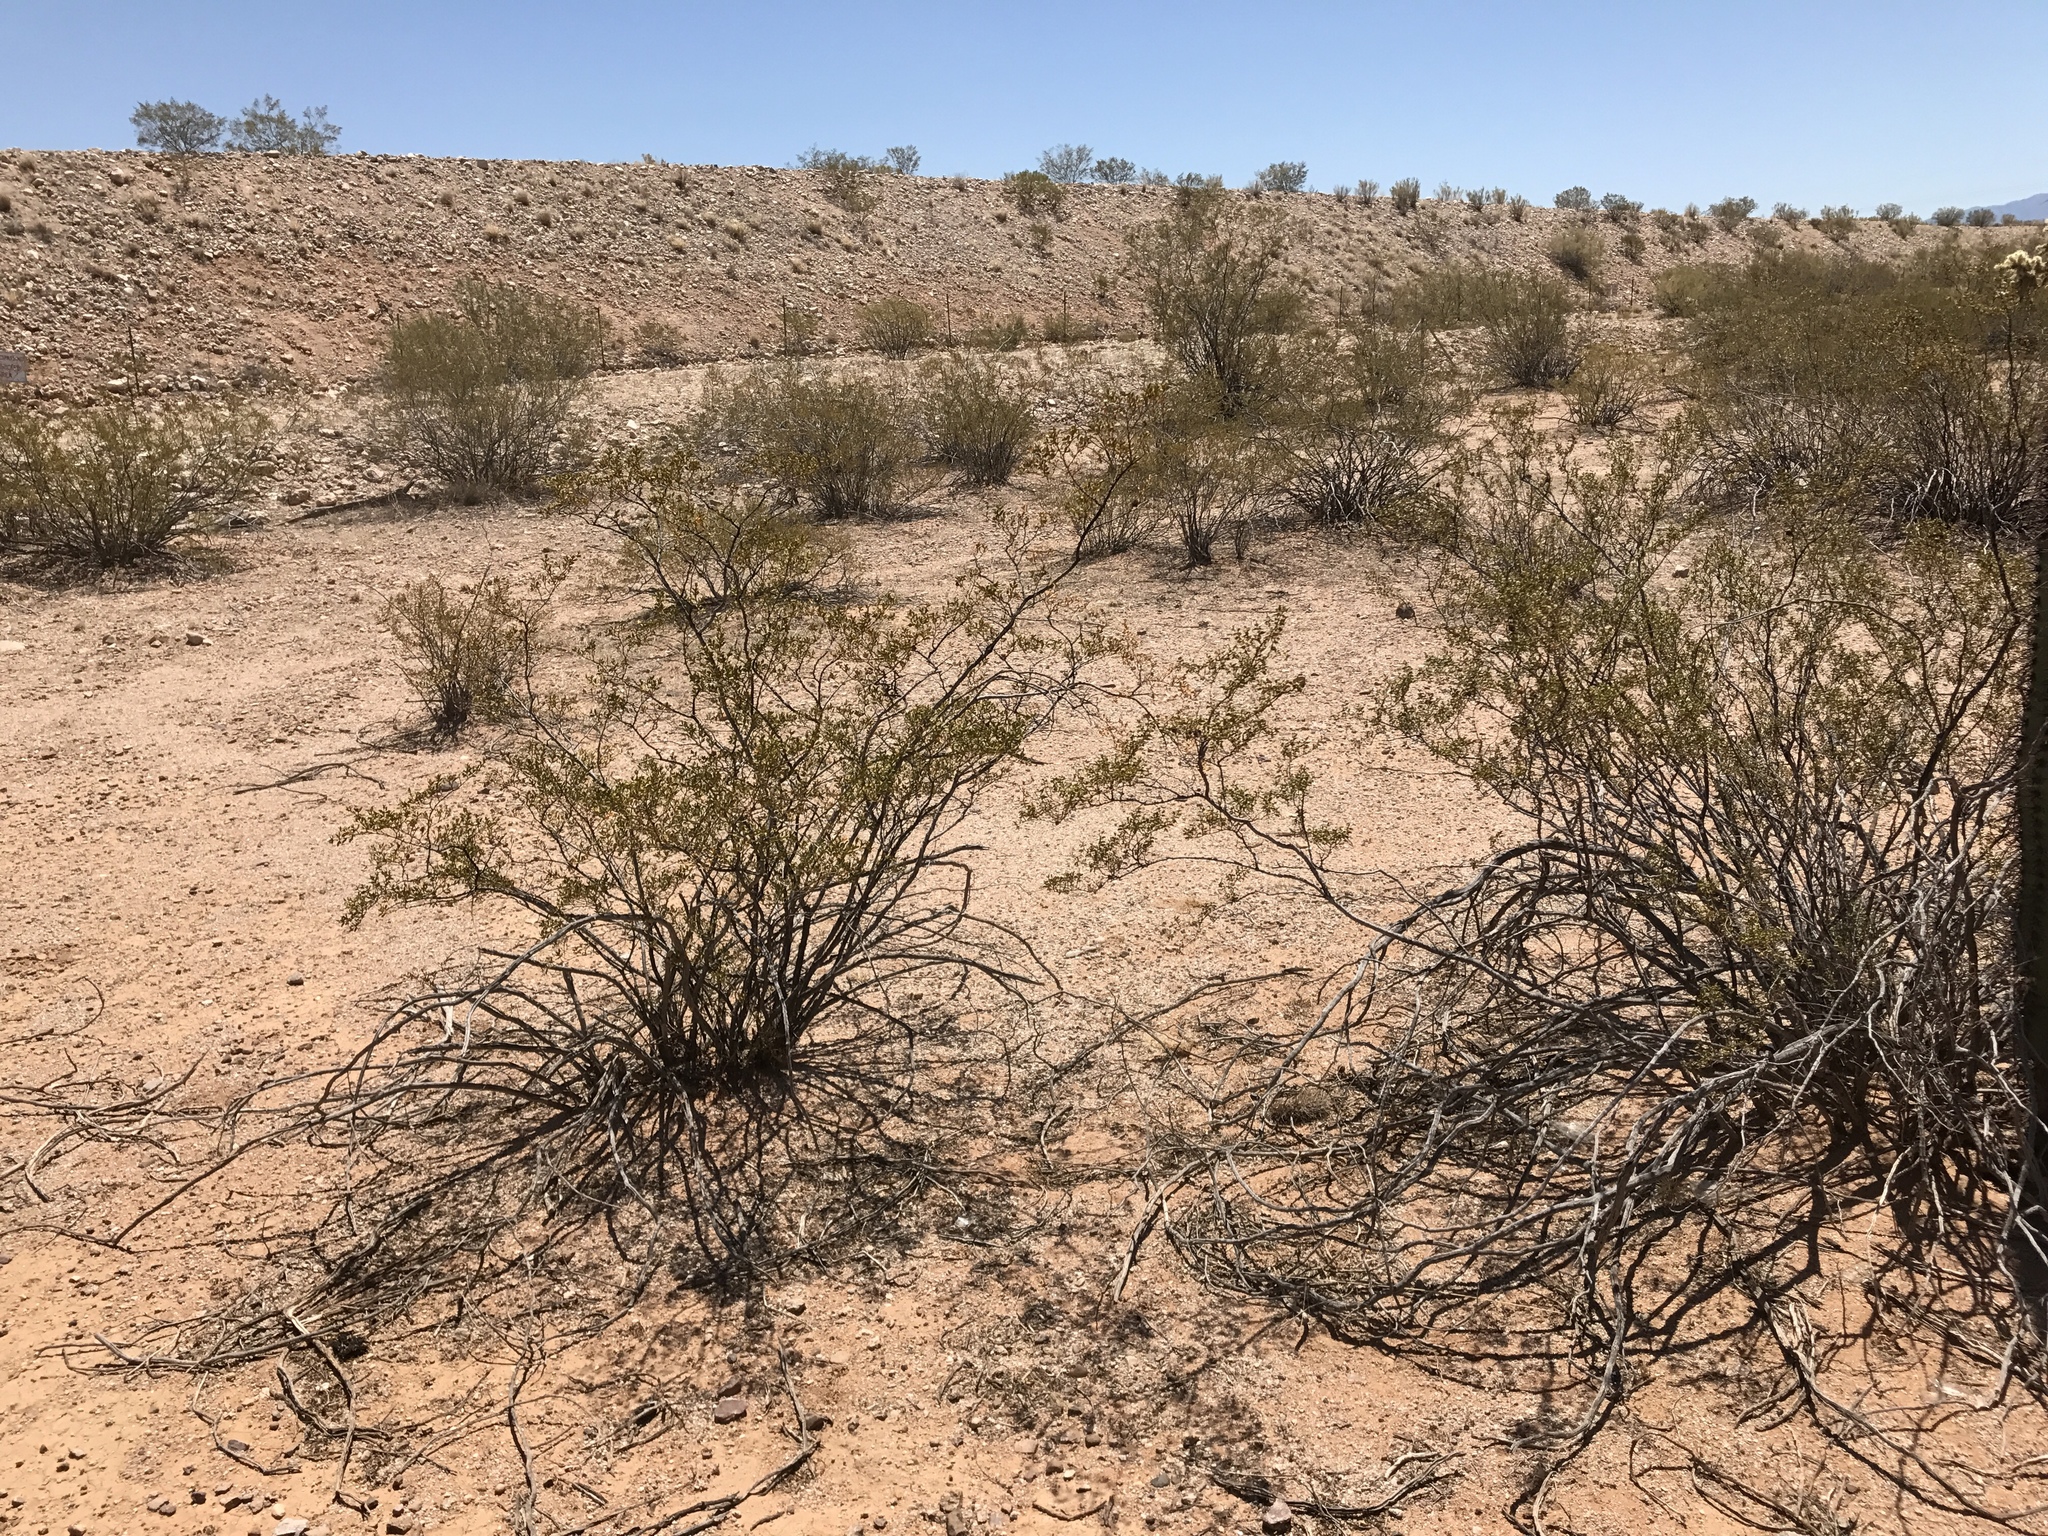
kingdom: Plantae
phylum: Tracheophyta
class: Magnoliopsida
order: Zygophyllales
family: Zygophyllaceae
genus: Larrea
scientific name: Larrea tridentata
